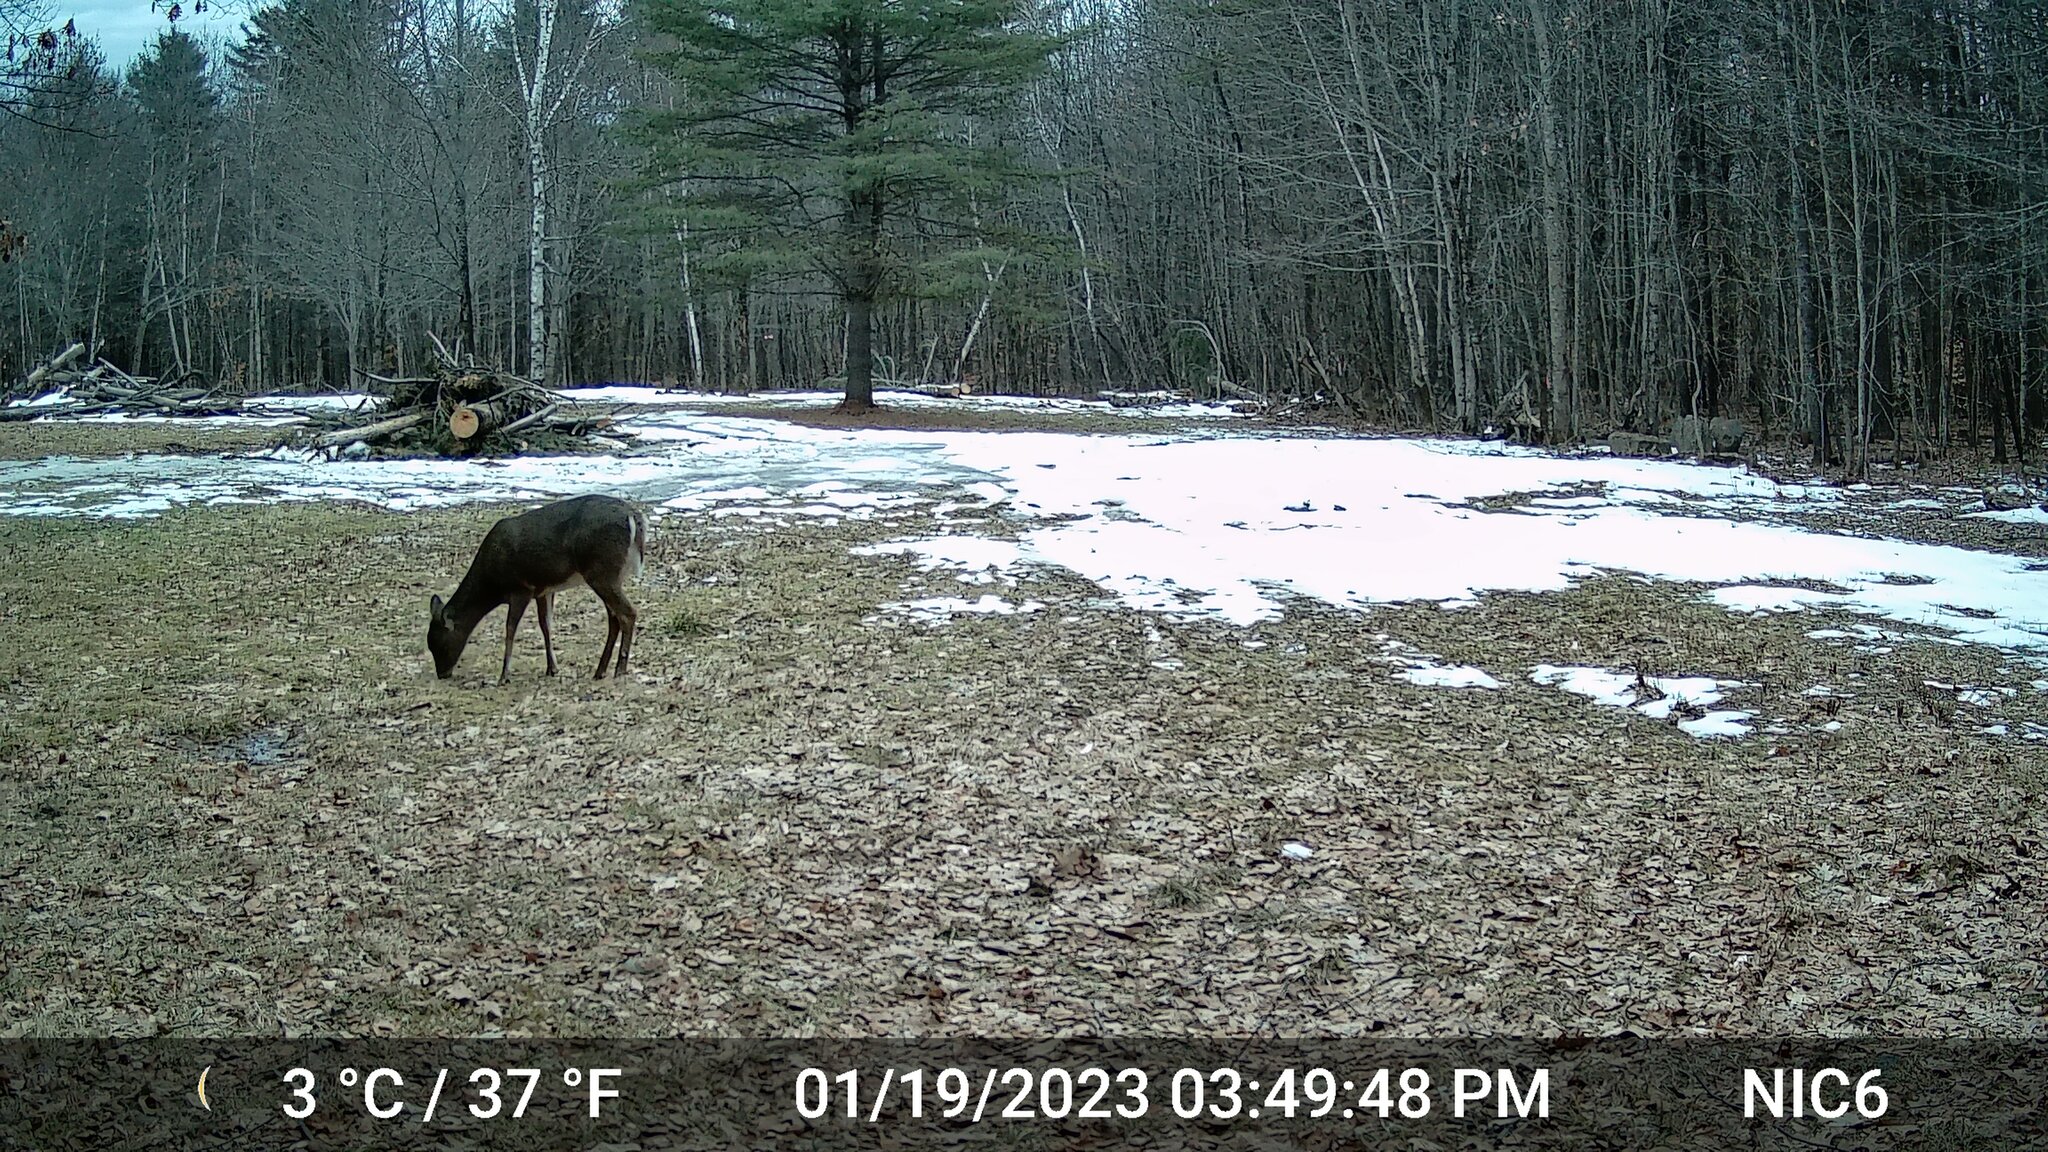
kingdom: Animalia
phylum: Chordata
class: Mammalia
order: Artiodactyla
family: Cervidae
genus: Odocoileus
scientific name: Odocoileus virginianus
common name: White-tailed deer
